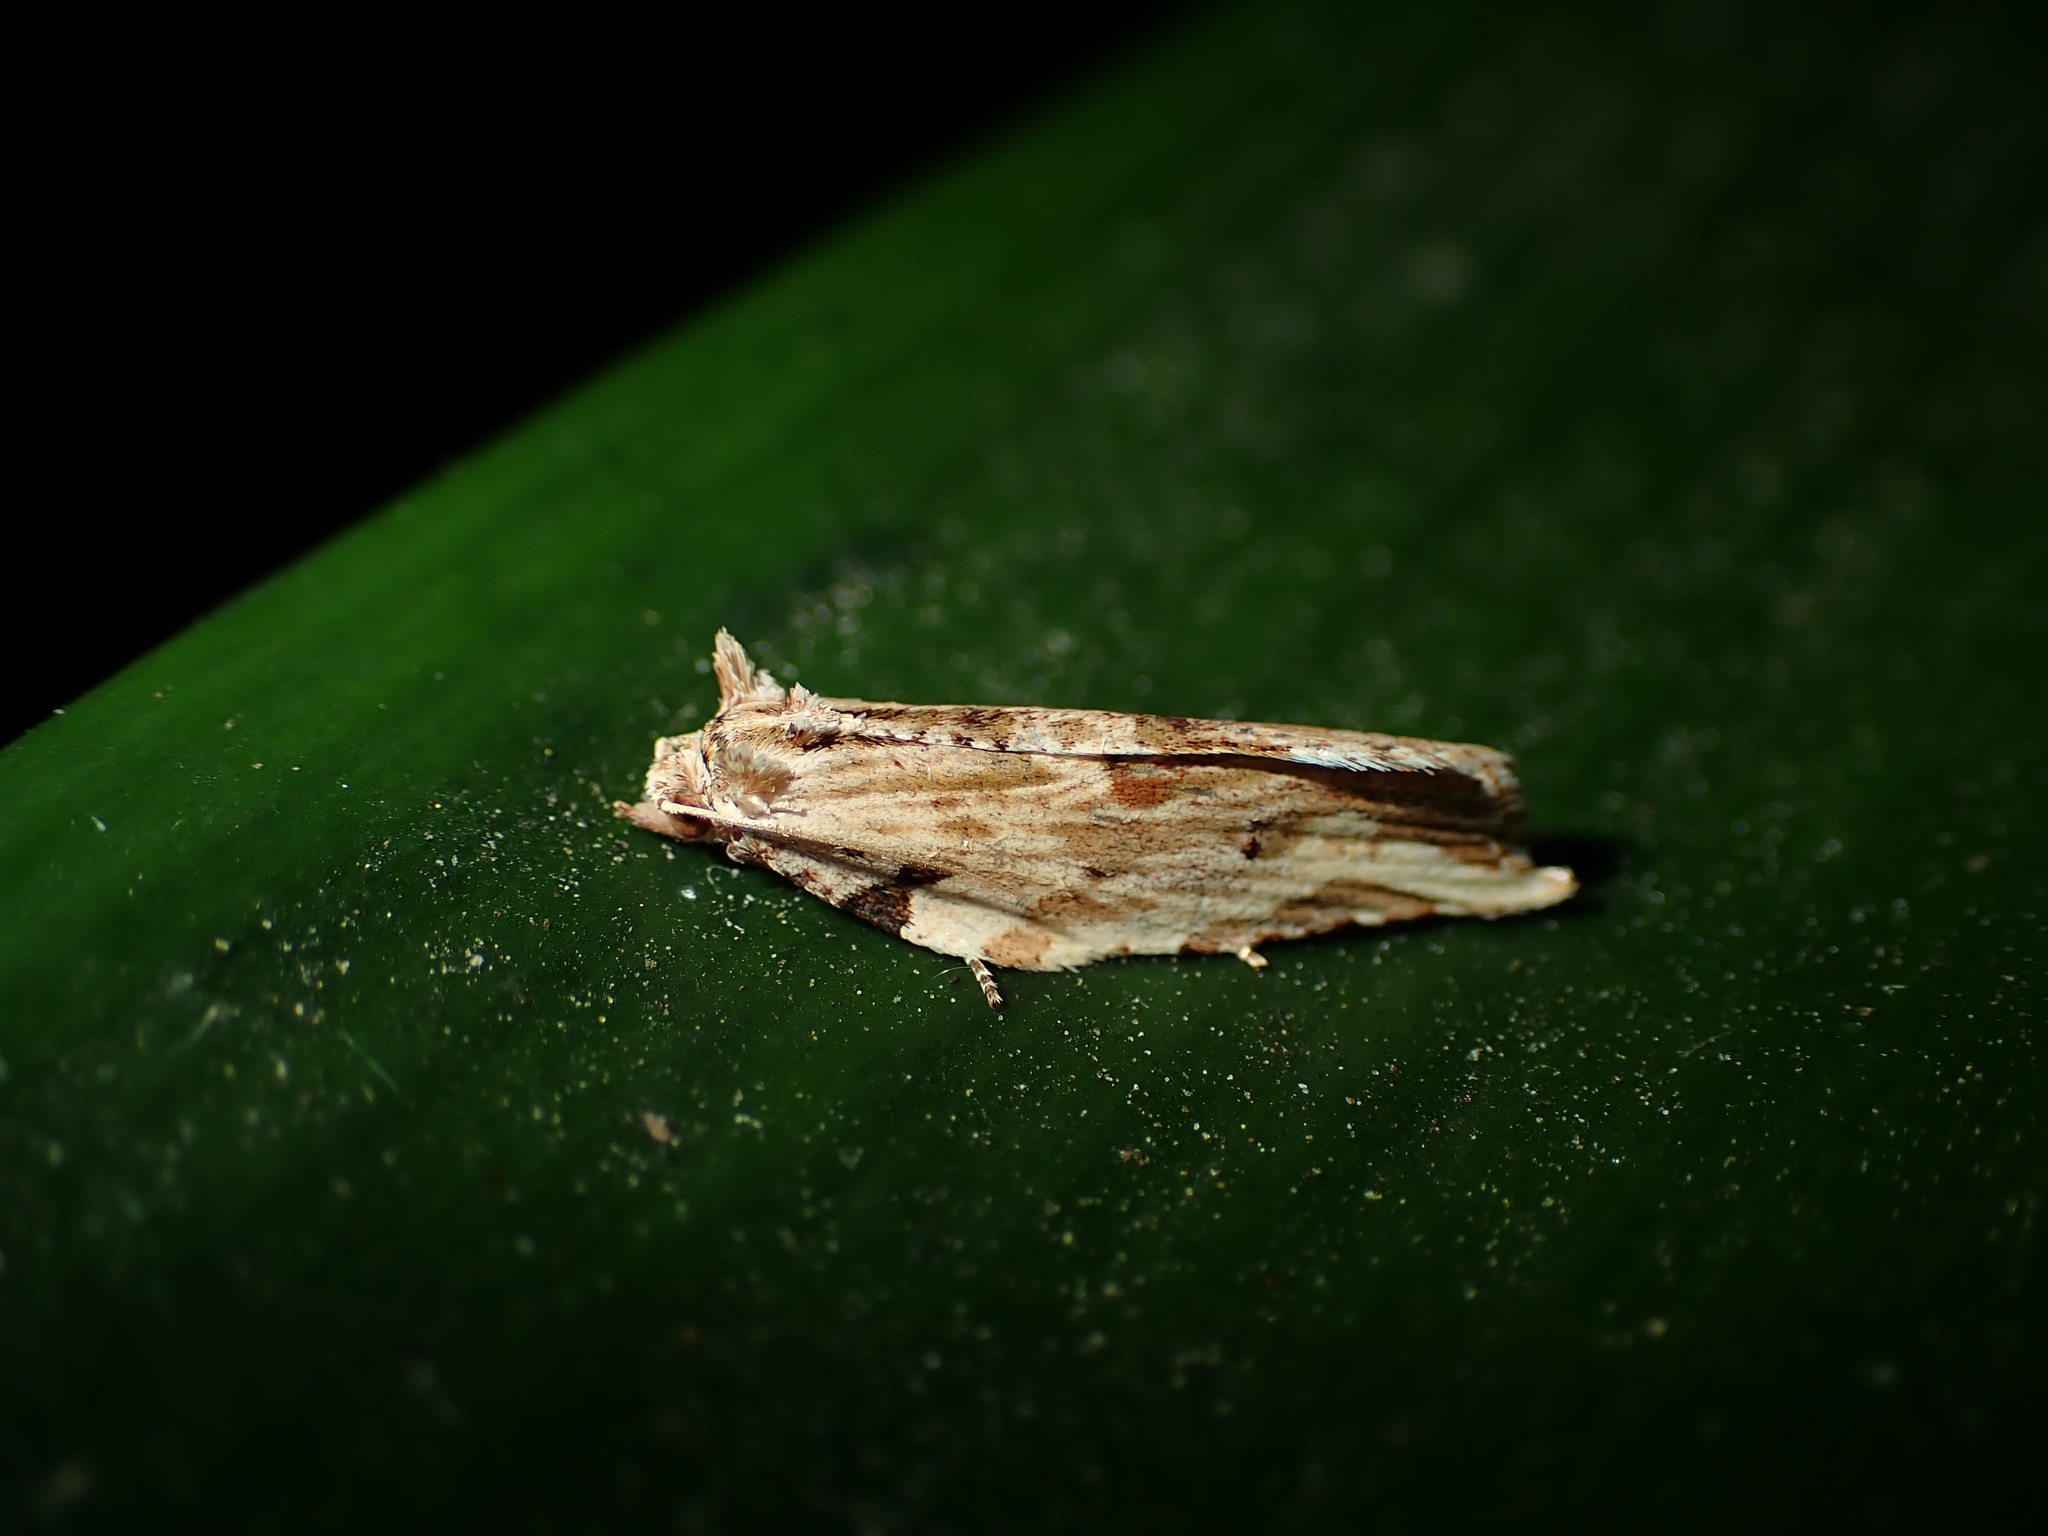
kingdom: Animalia
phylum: Arthropoda
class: Insecta
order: Lepidoptera
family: Tortricidae
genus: Epalxiphora
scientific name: Epalxiphora axenana
